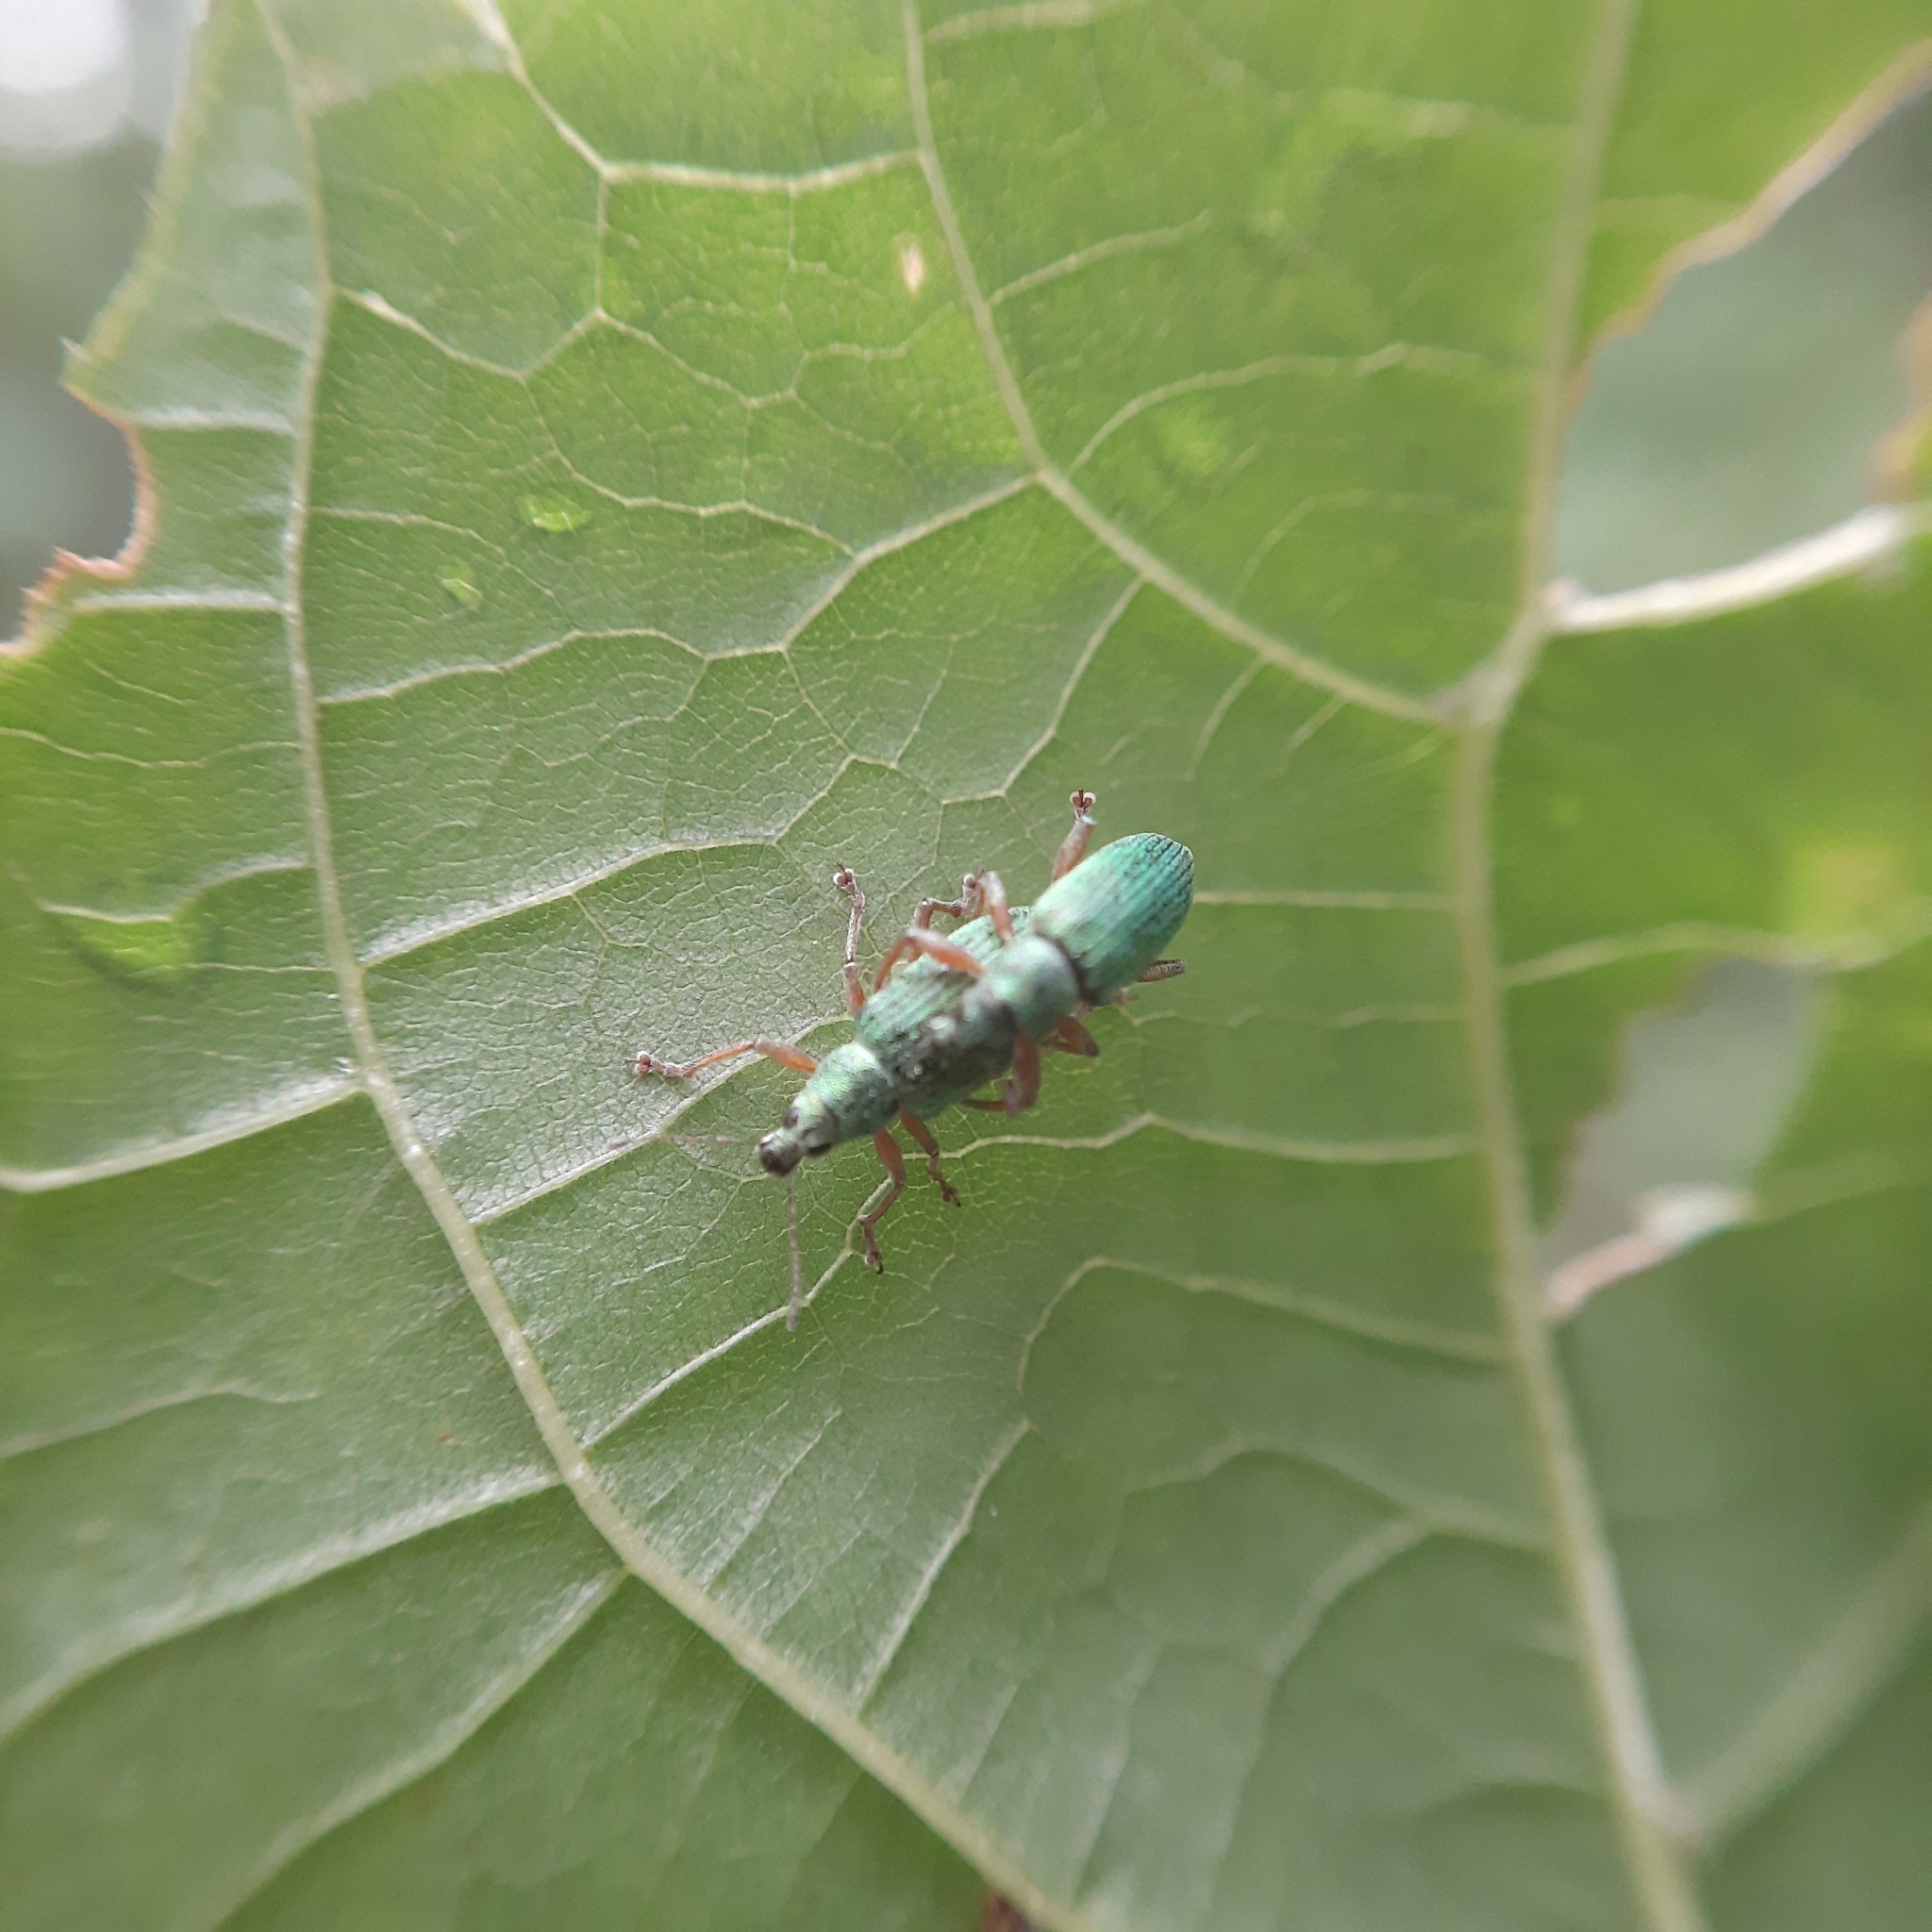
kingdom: Animalia
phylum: Arthropoda
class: Insecta
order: Coleoptera
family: Curculionidae
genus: Polydrusus
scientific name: Polydrusus formosus
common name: Weevil
